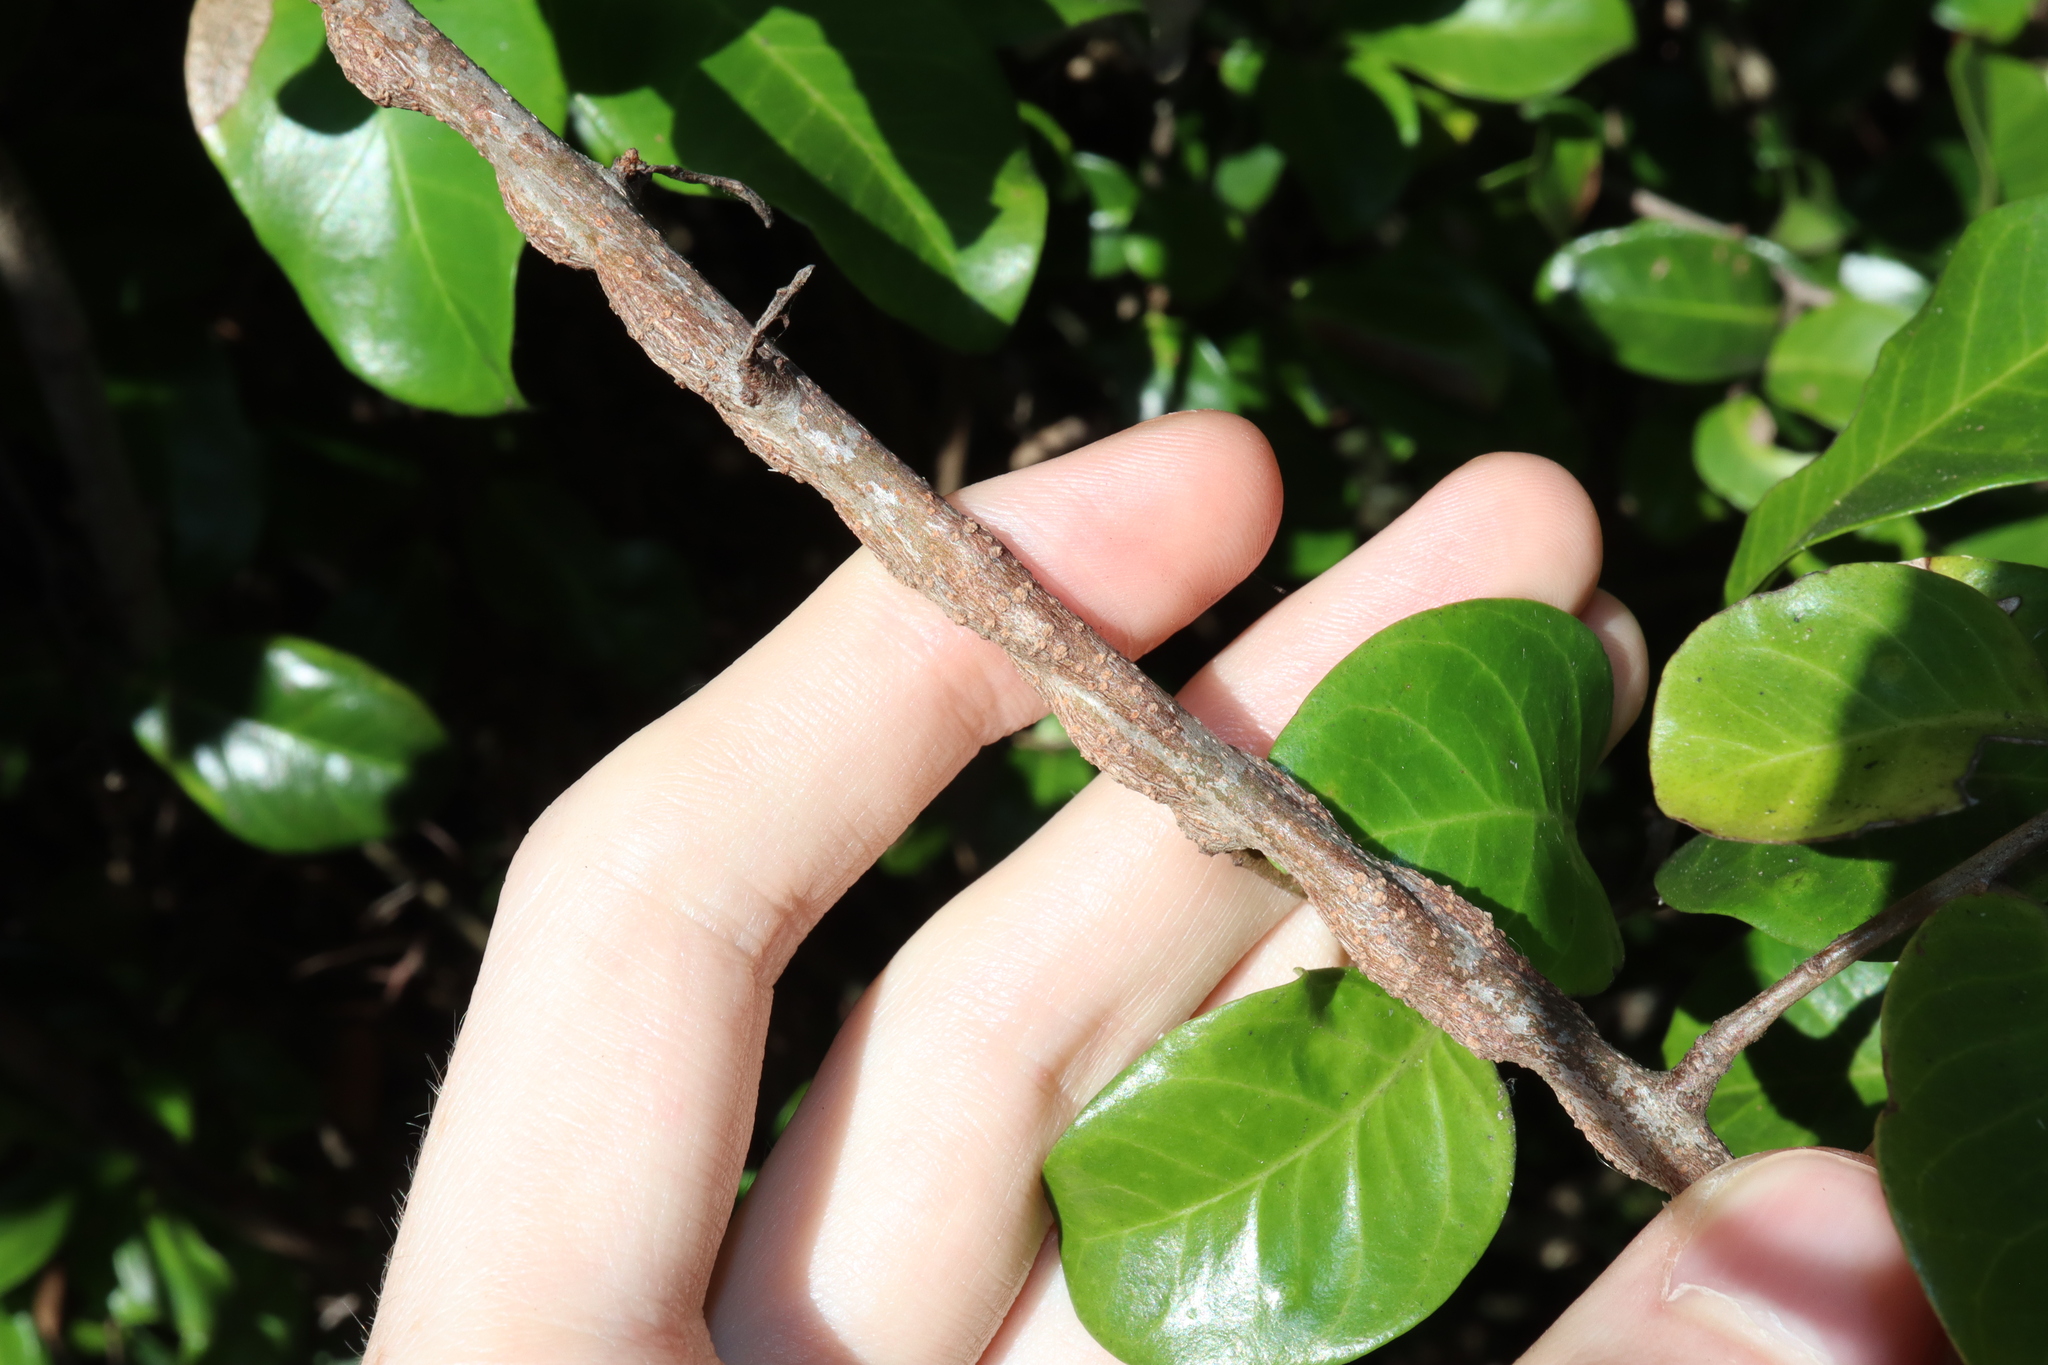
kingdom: Plantae
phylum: Tracheophyta
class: Magnoliopsida
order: Ericales
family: Primulaceae
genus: Embelia
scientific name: Embelia australiana
